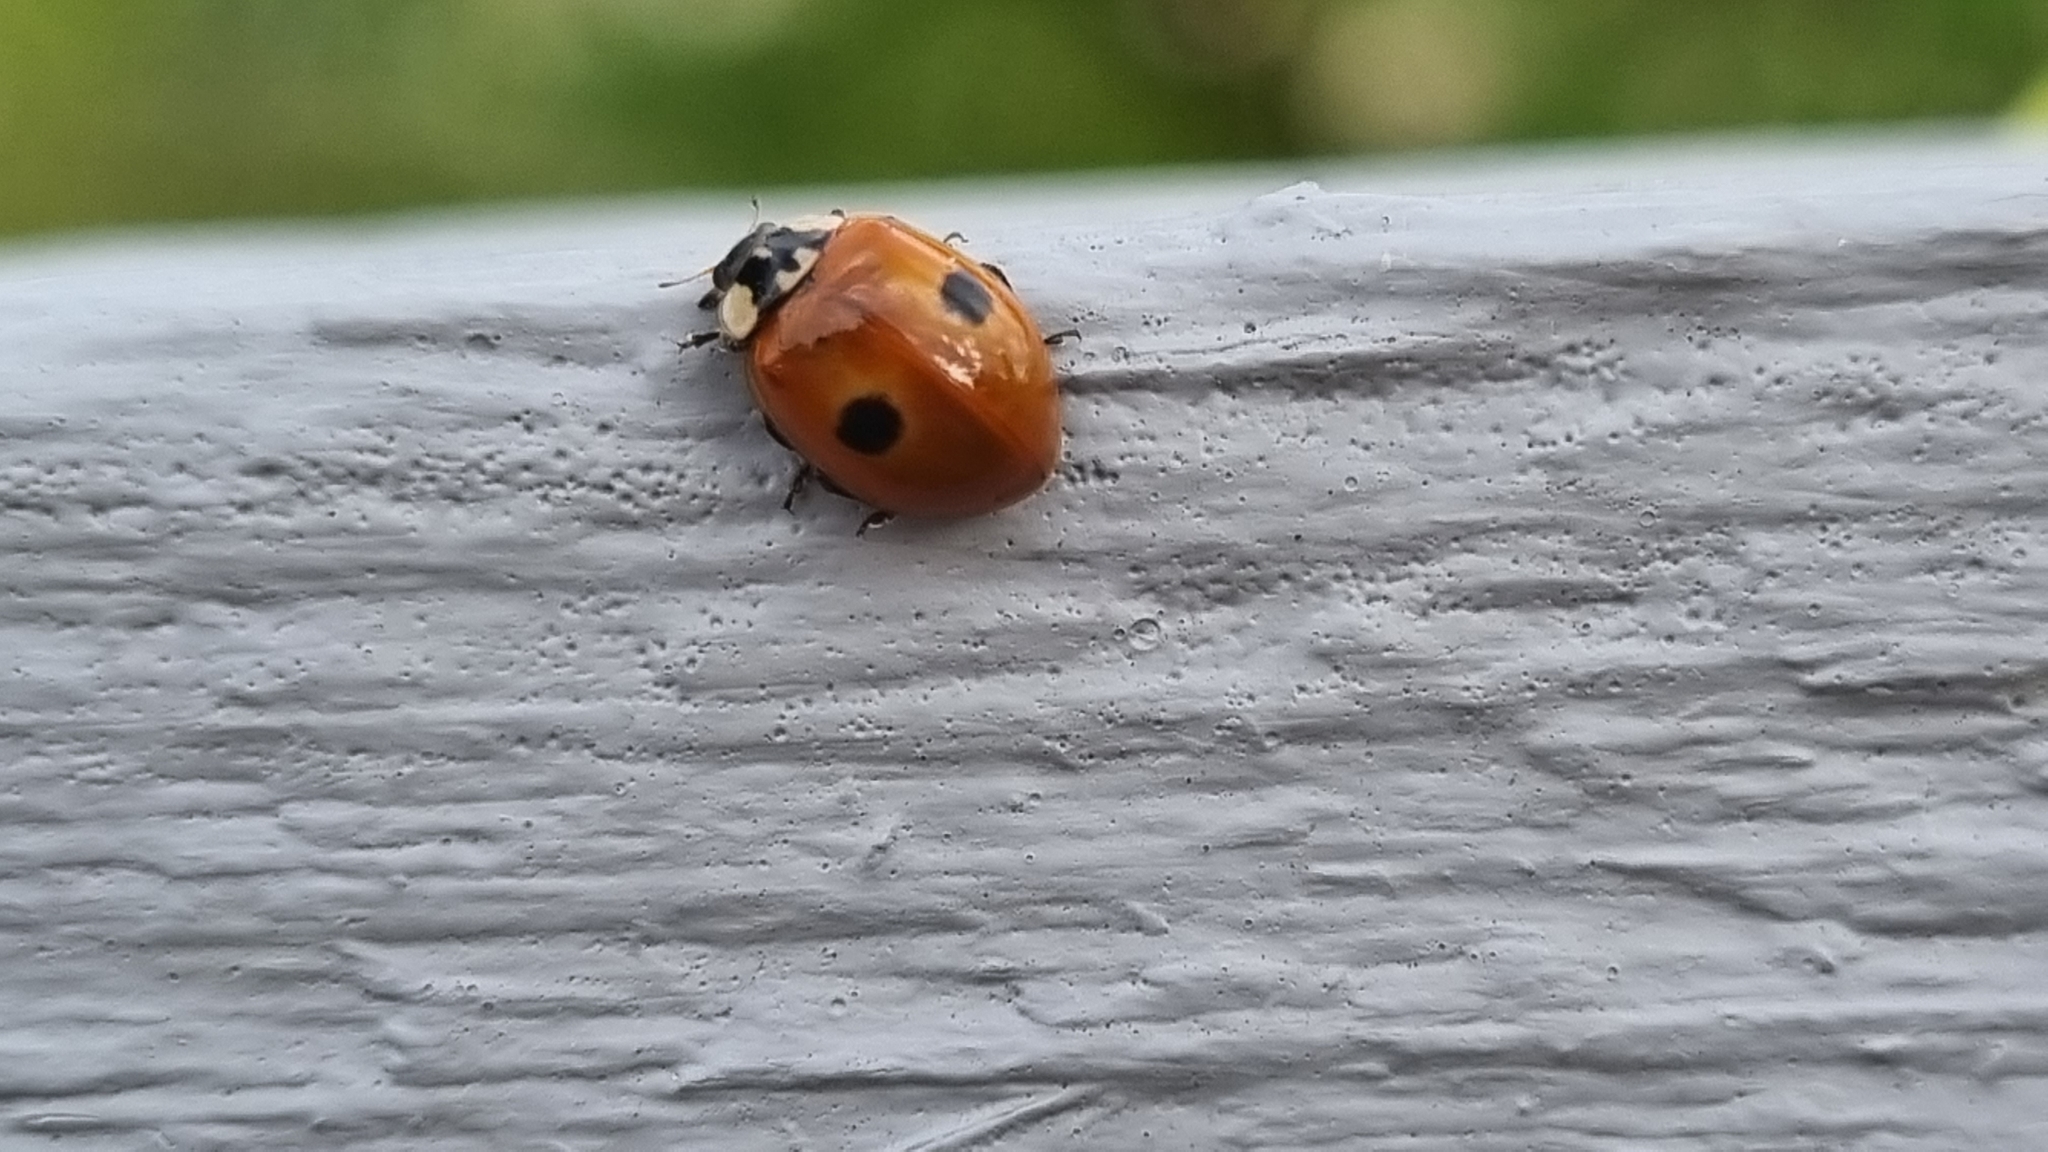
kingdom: Animalia
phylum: Arthropoda
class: Insecta
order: Coleoptera
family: Coccinellidae
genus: Adalia
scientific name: Adalia bipunctata
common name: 2-spot ladybird
